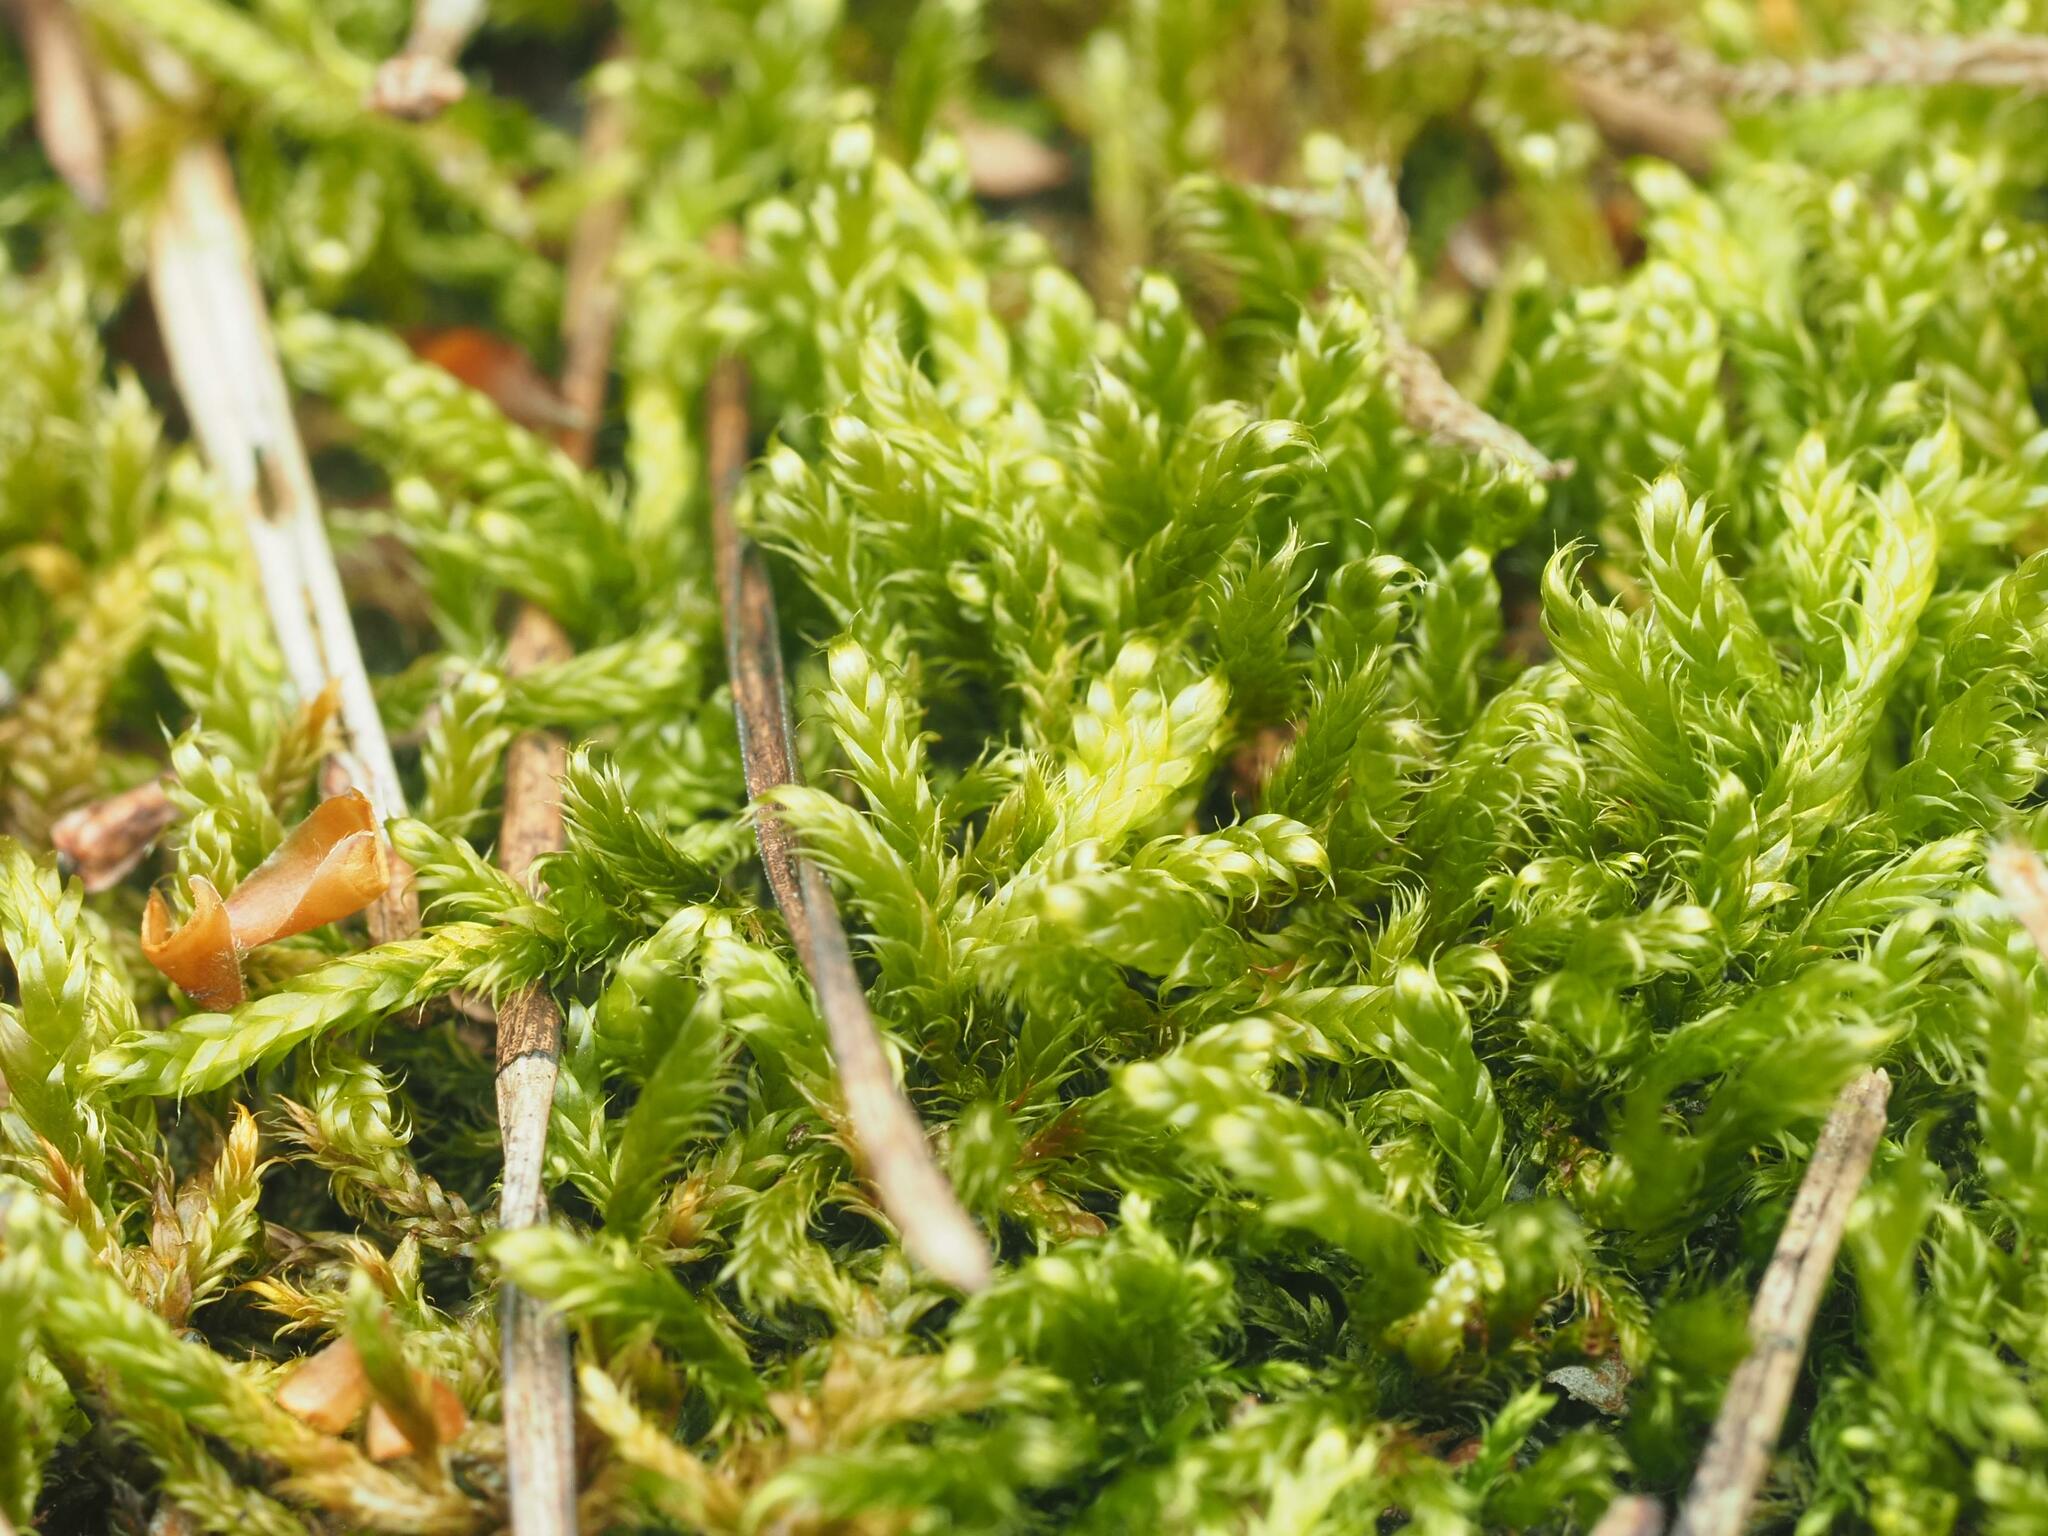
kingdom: Plantae
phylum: Bryophyta
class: Bryopsida
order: Hypnales
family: Hypnaceae
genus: Hypnum
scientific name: Hypnum cupressiforme
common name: Cypress-leaved plait-moss
